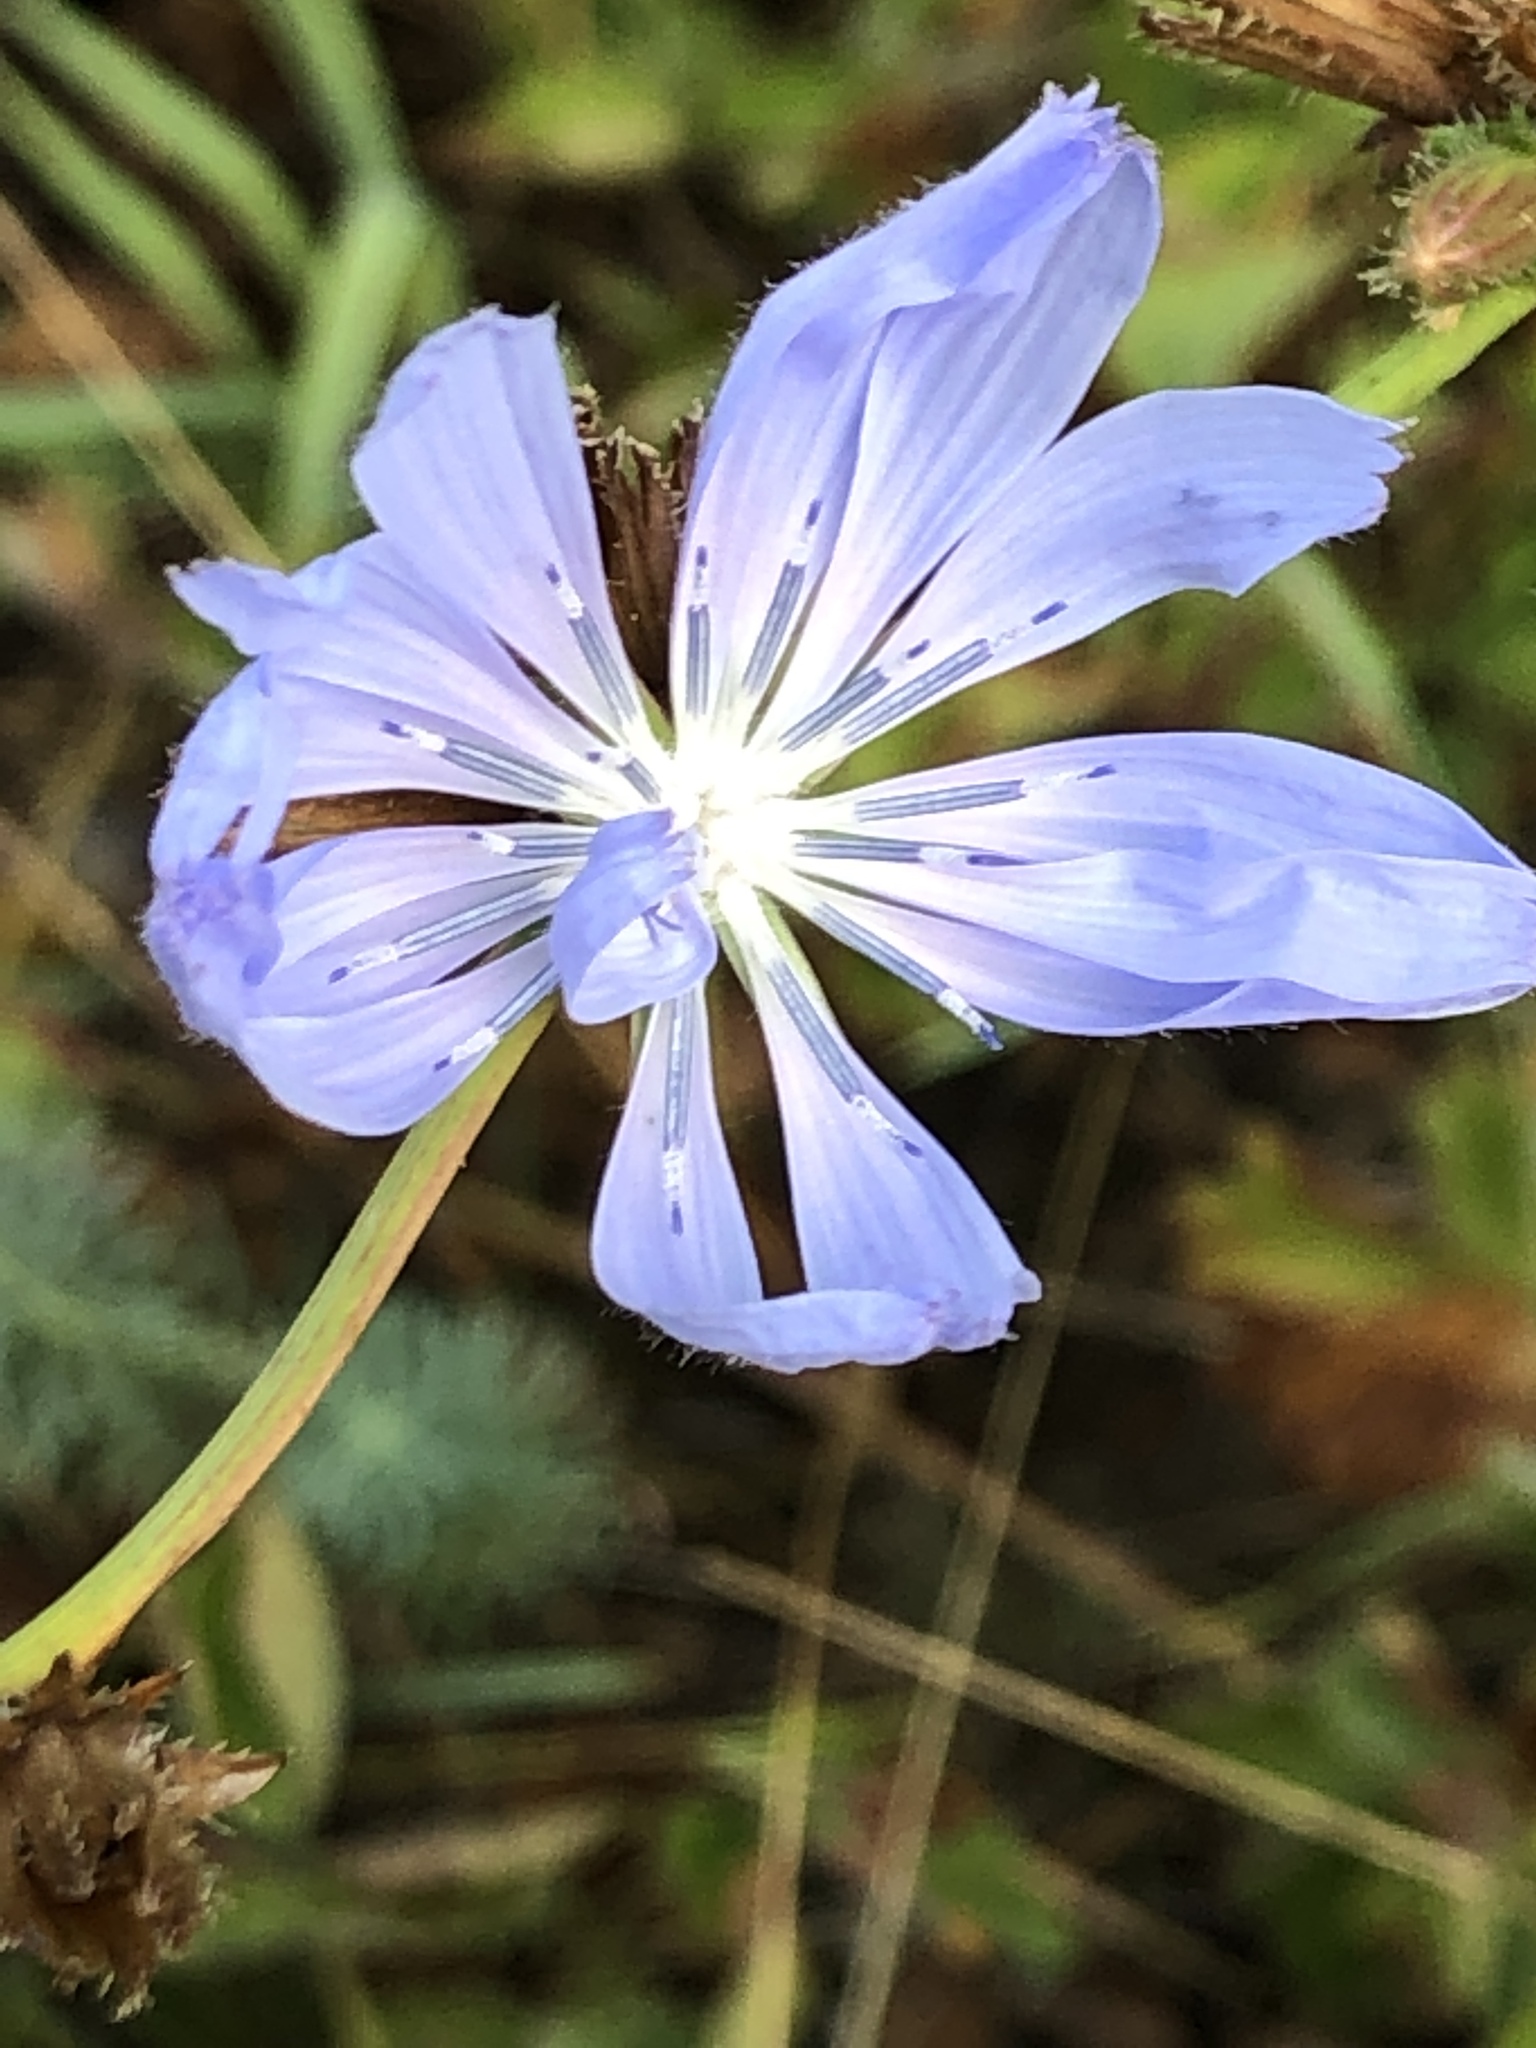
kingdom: Plantae
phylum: Tracheophyta
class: Magnoliopsida
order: Asterales
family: Asteraceae
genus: Cichorium
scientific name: Cichorium intybus
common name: Chicory
